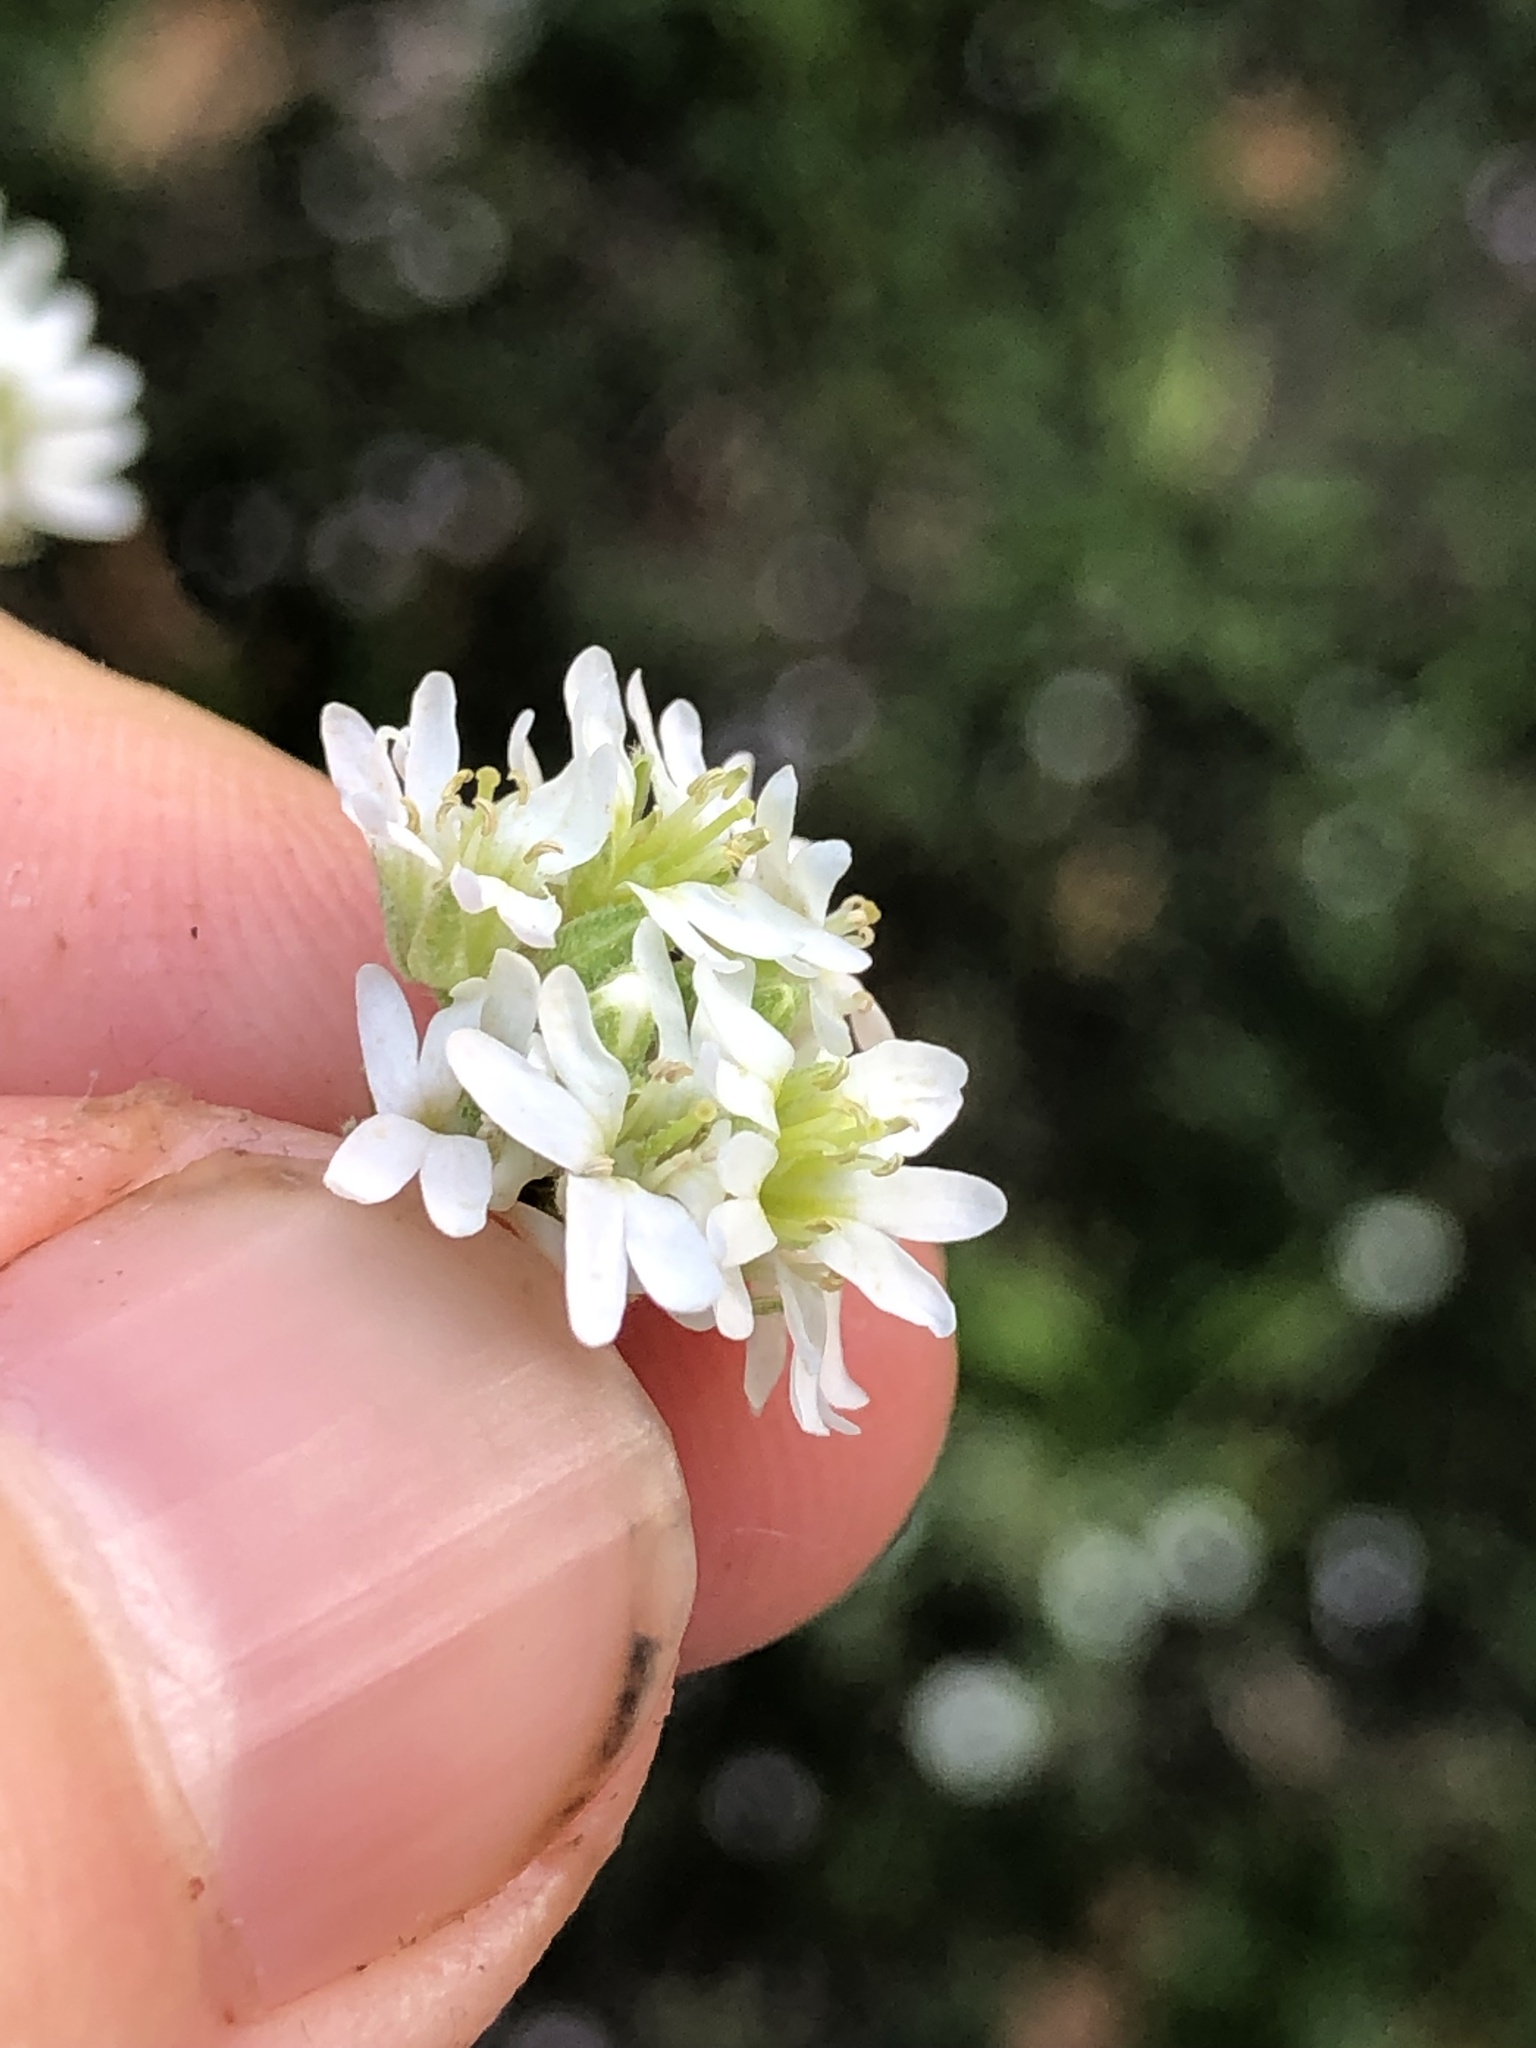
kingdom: Plantae
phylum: Tracheophyta
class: Magnoliopsida
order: Brassicales
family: Brassicaceae
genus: Berteroa
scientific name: Berteroa incana
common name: Hoary alison
